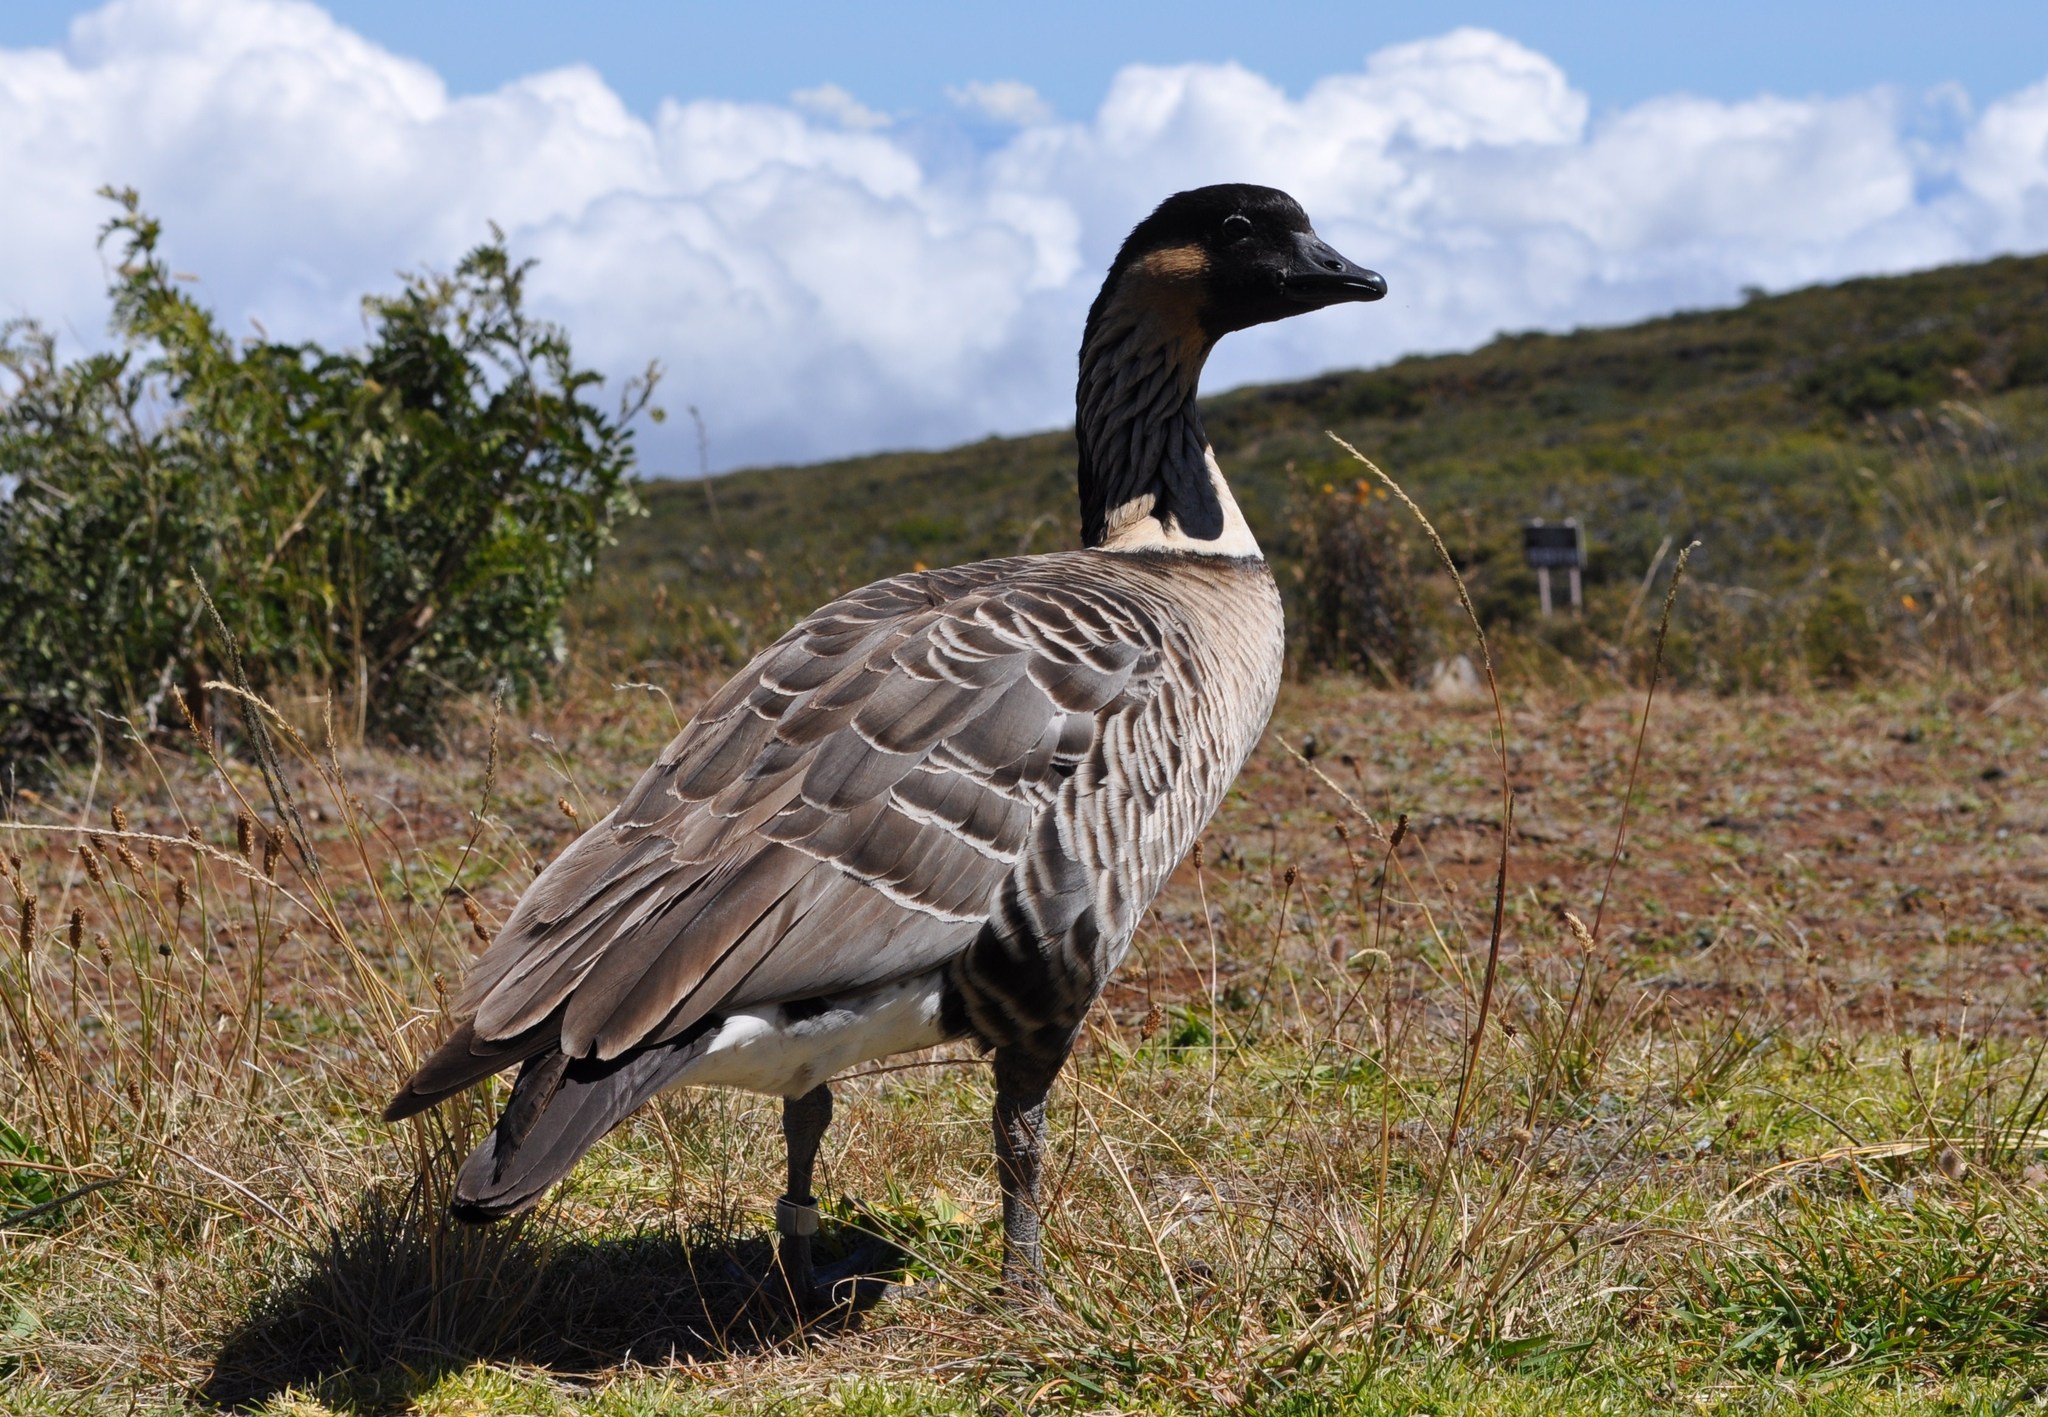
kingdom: Animalia
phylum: Chordata
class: Aves
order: Anseriformes
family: Anatidae
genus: Branta
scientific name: Branta sandvicensis
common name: Nene
